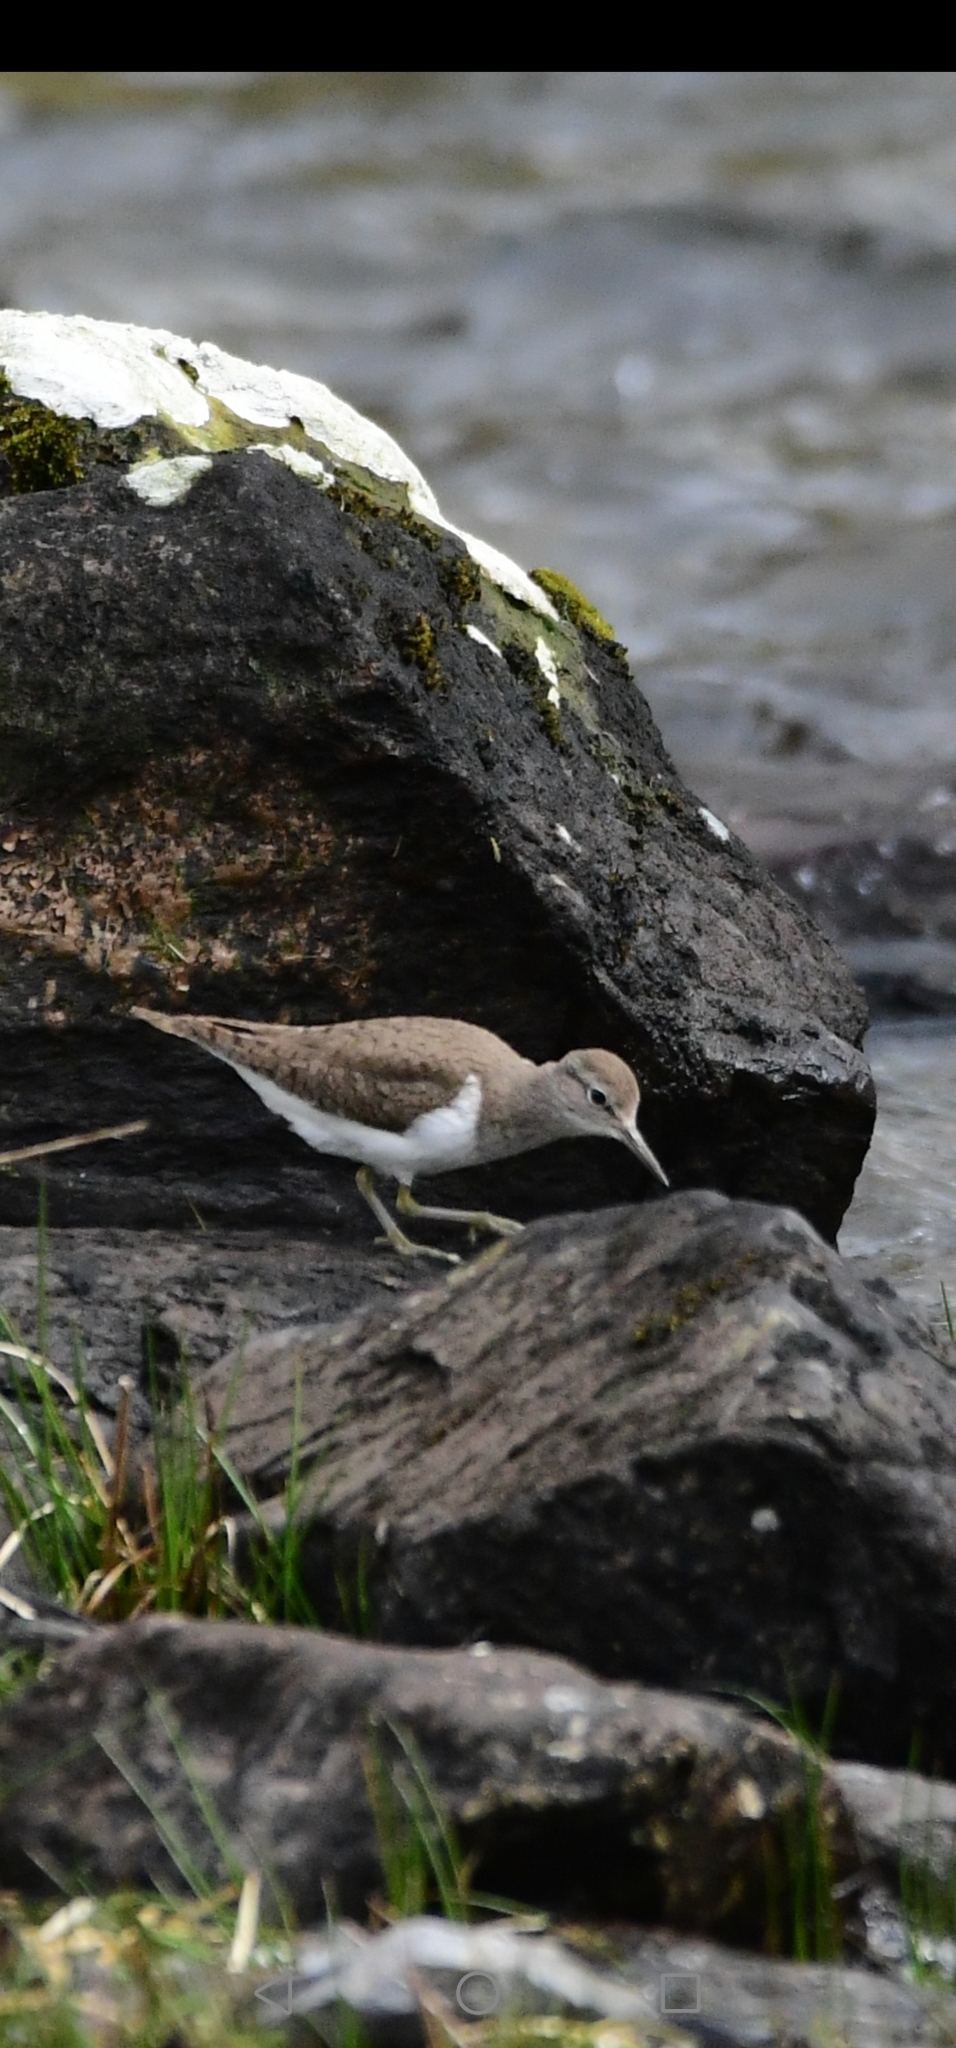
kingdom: Animalia
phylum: Chordata
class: Aves
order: Charadriiformes
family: Scolopacidae
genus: Actitis
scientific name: Actitis hypoleucos
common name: Common sandpiper
